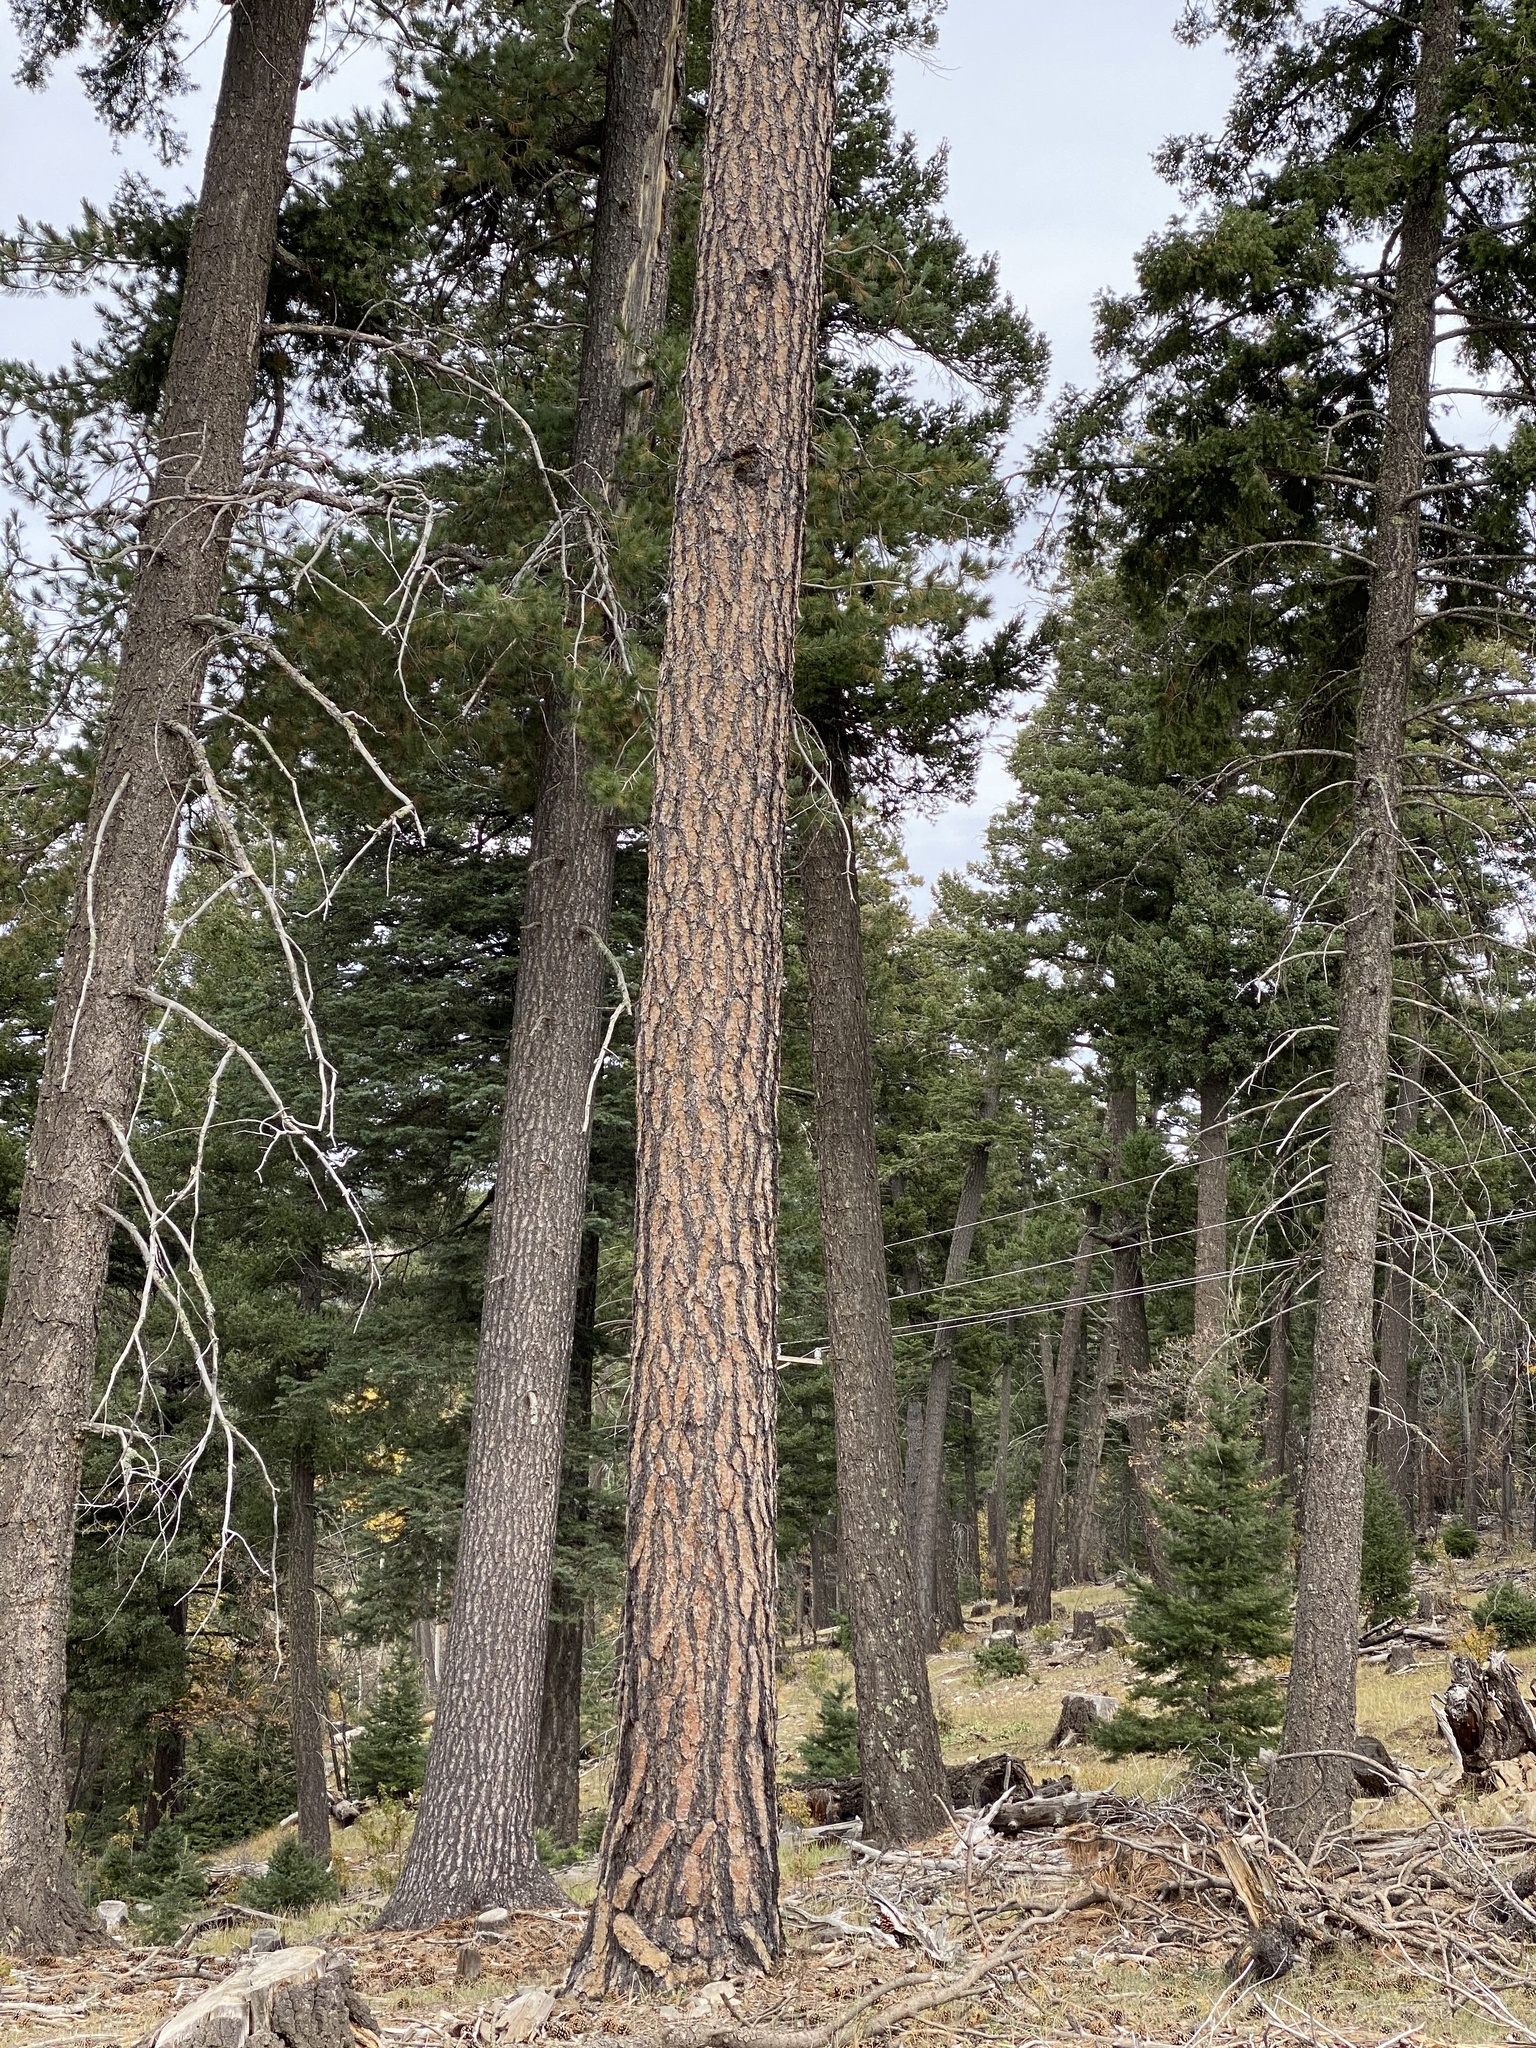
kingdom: Plantae
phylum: Tracheophyta
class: Pinopsida
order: Pinales
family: Pinaceae
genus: Pinus
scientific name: Pinus ponderosa
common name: Western yellow-pine
